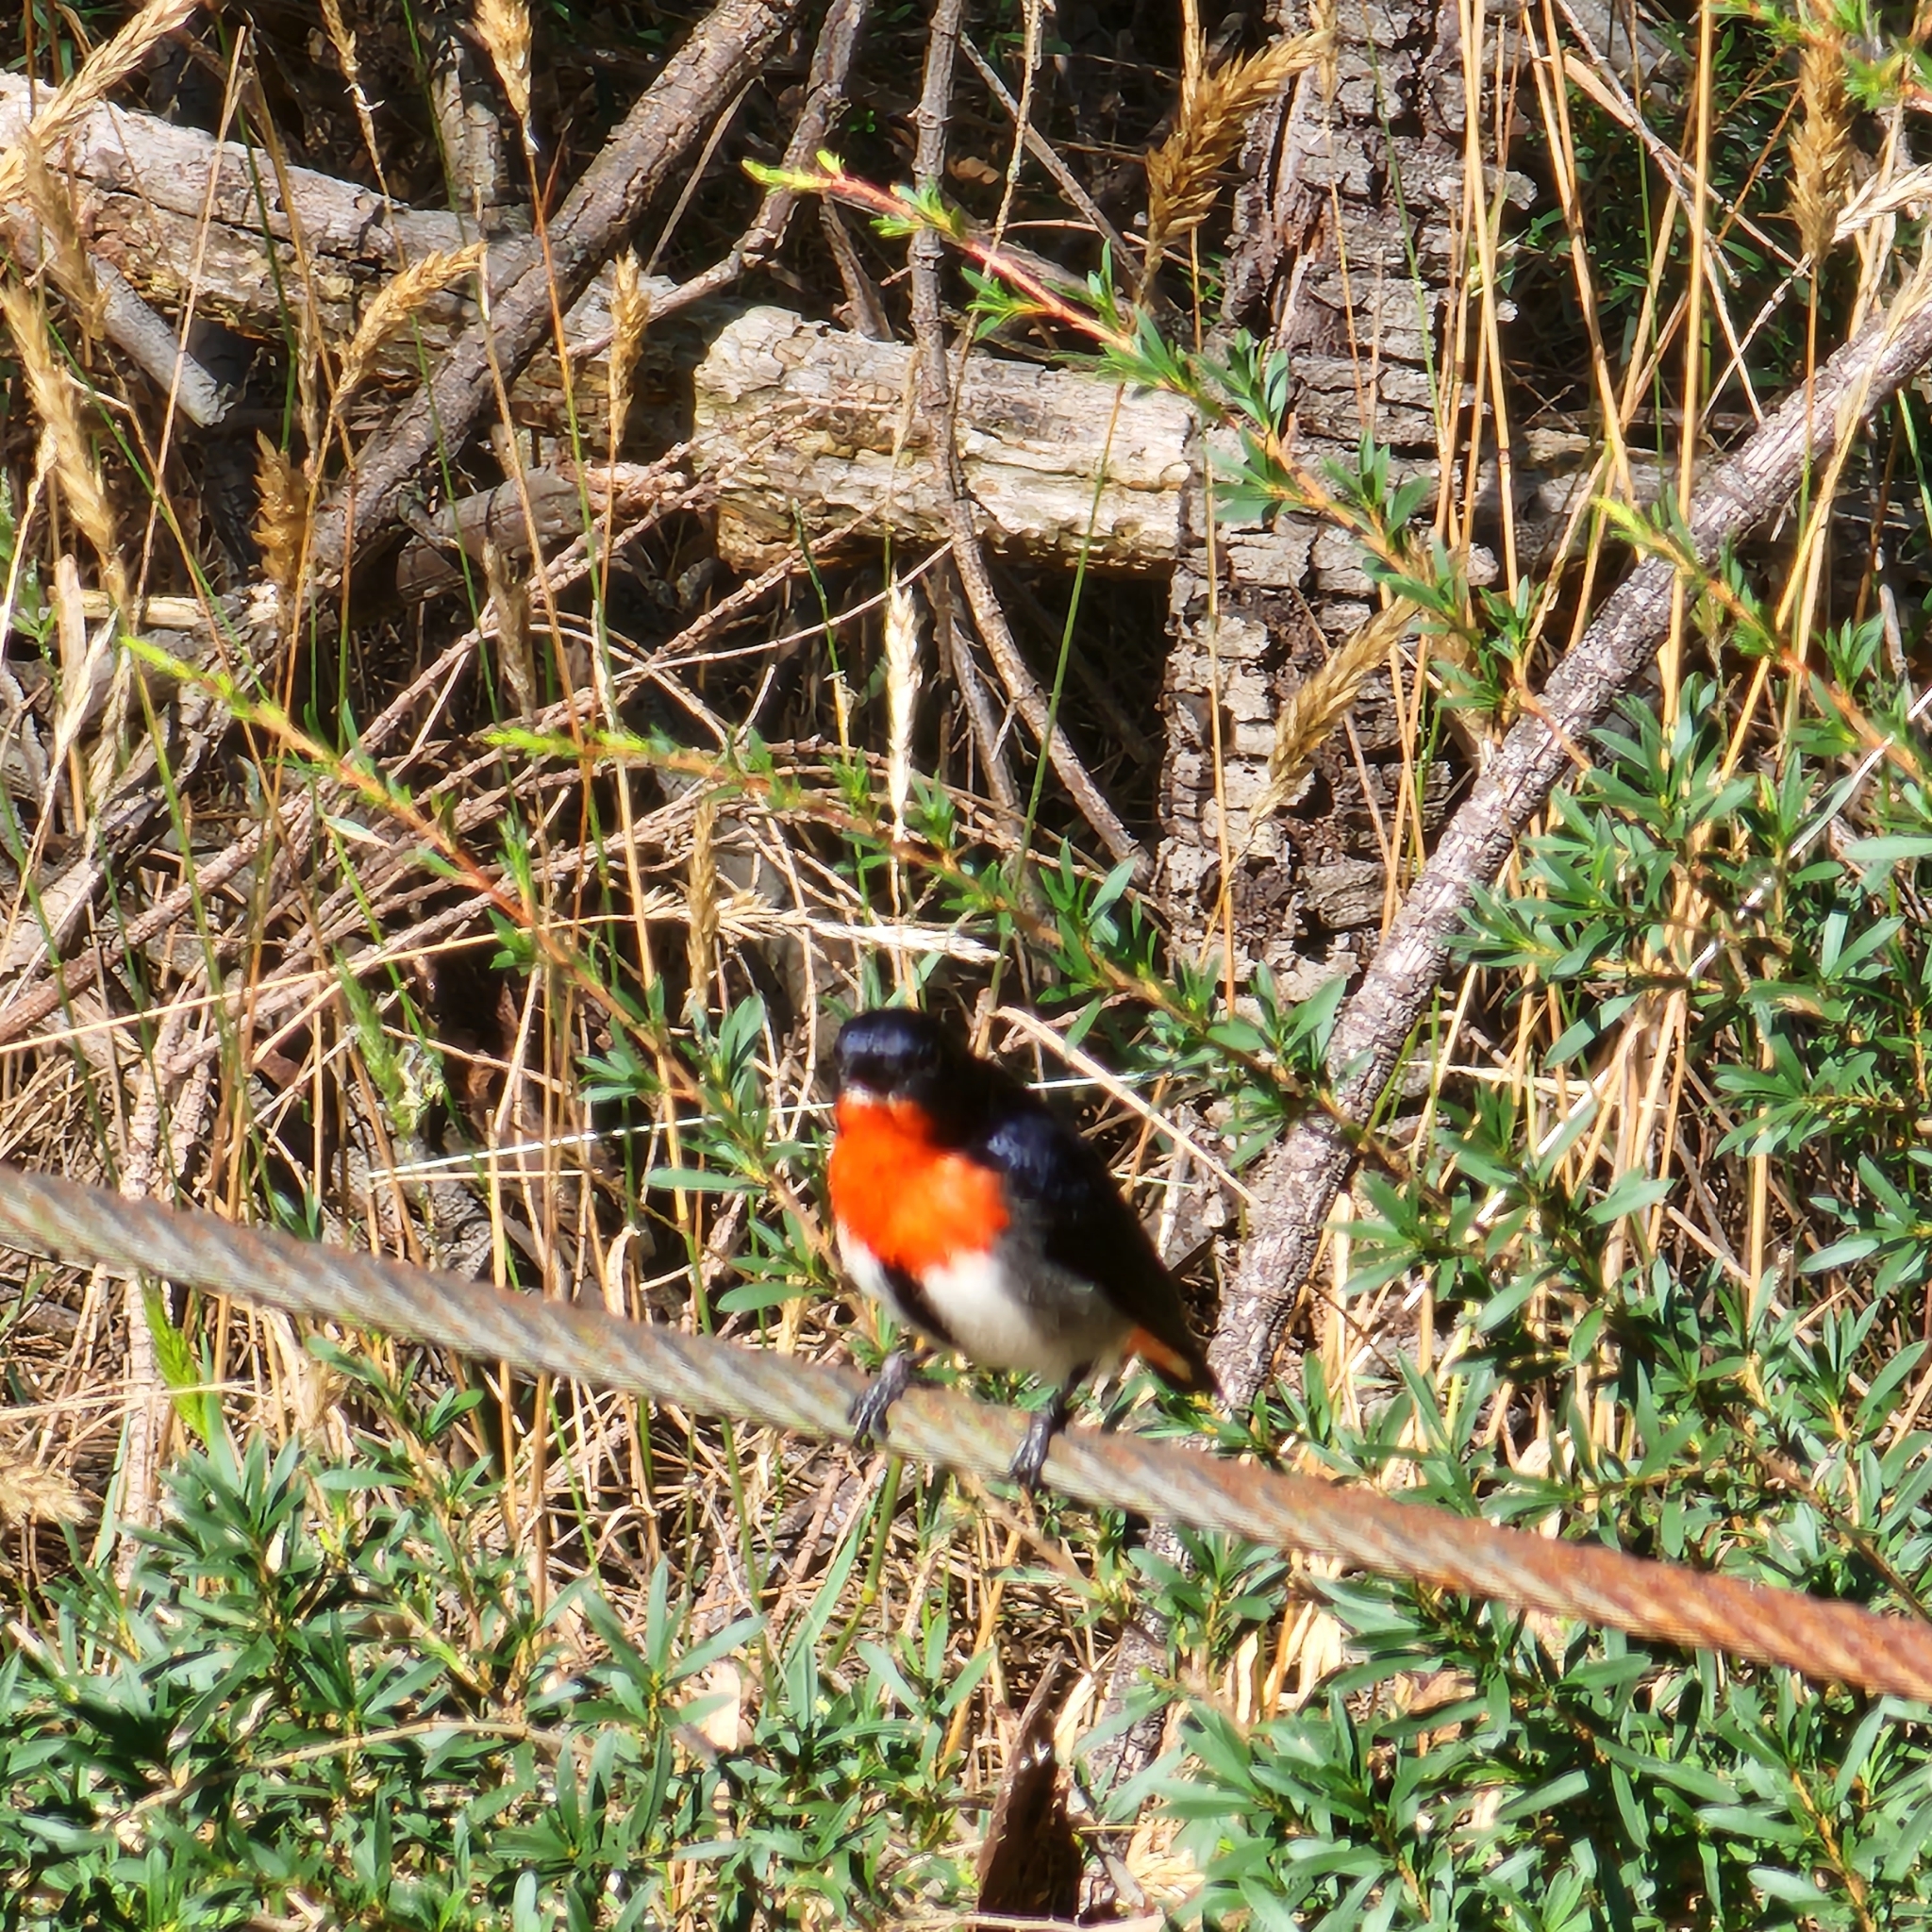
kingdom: Animalia
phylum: Chordata
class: Aves
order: Passeriformes
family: Dicaeidae
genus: Dicaeum
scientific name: Dicaeum hirundinaceum
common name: Mistletoebird
